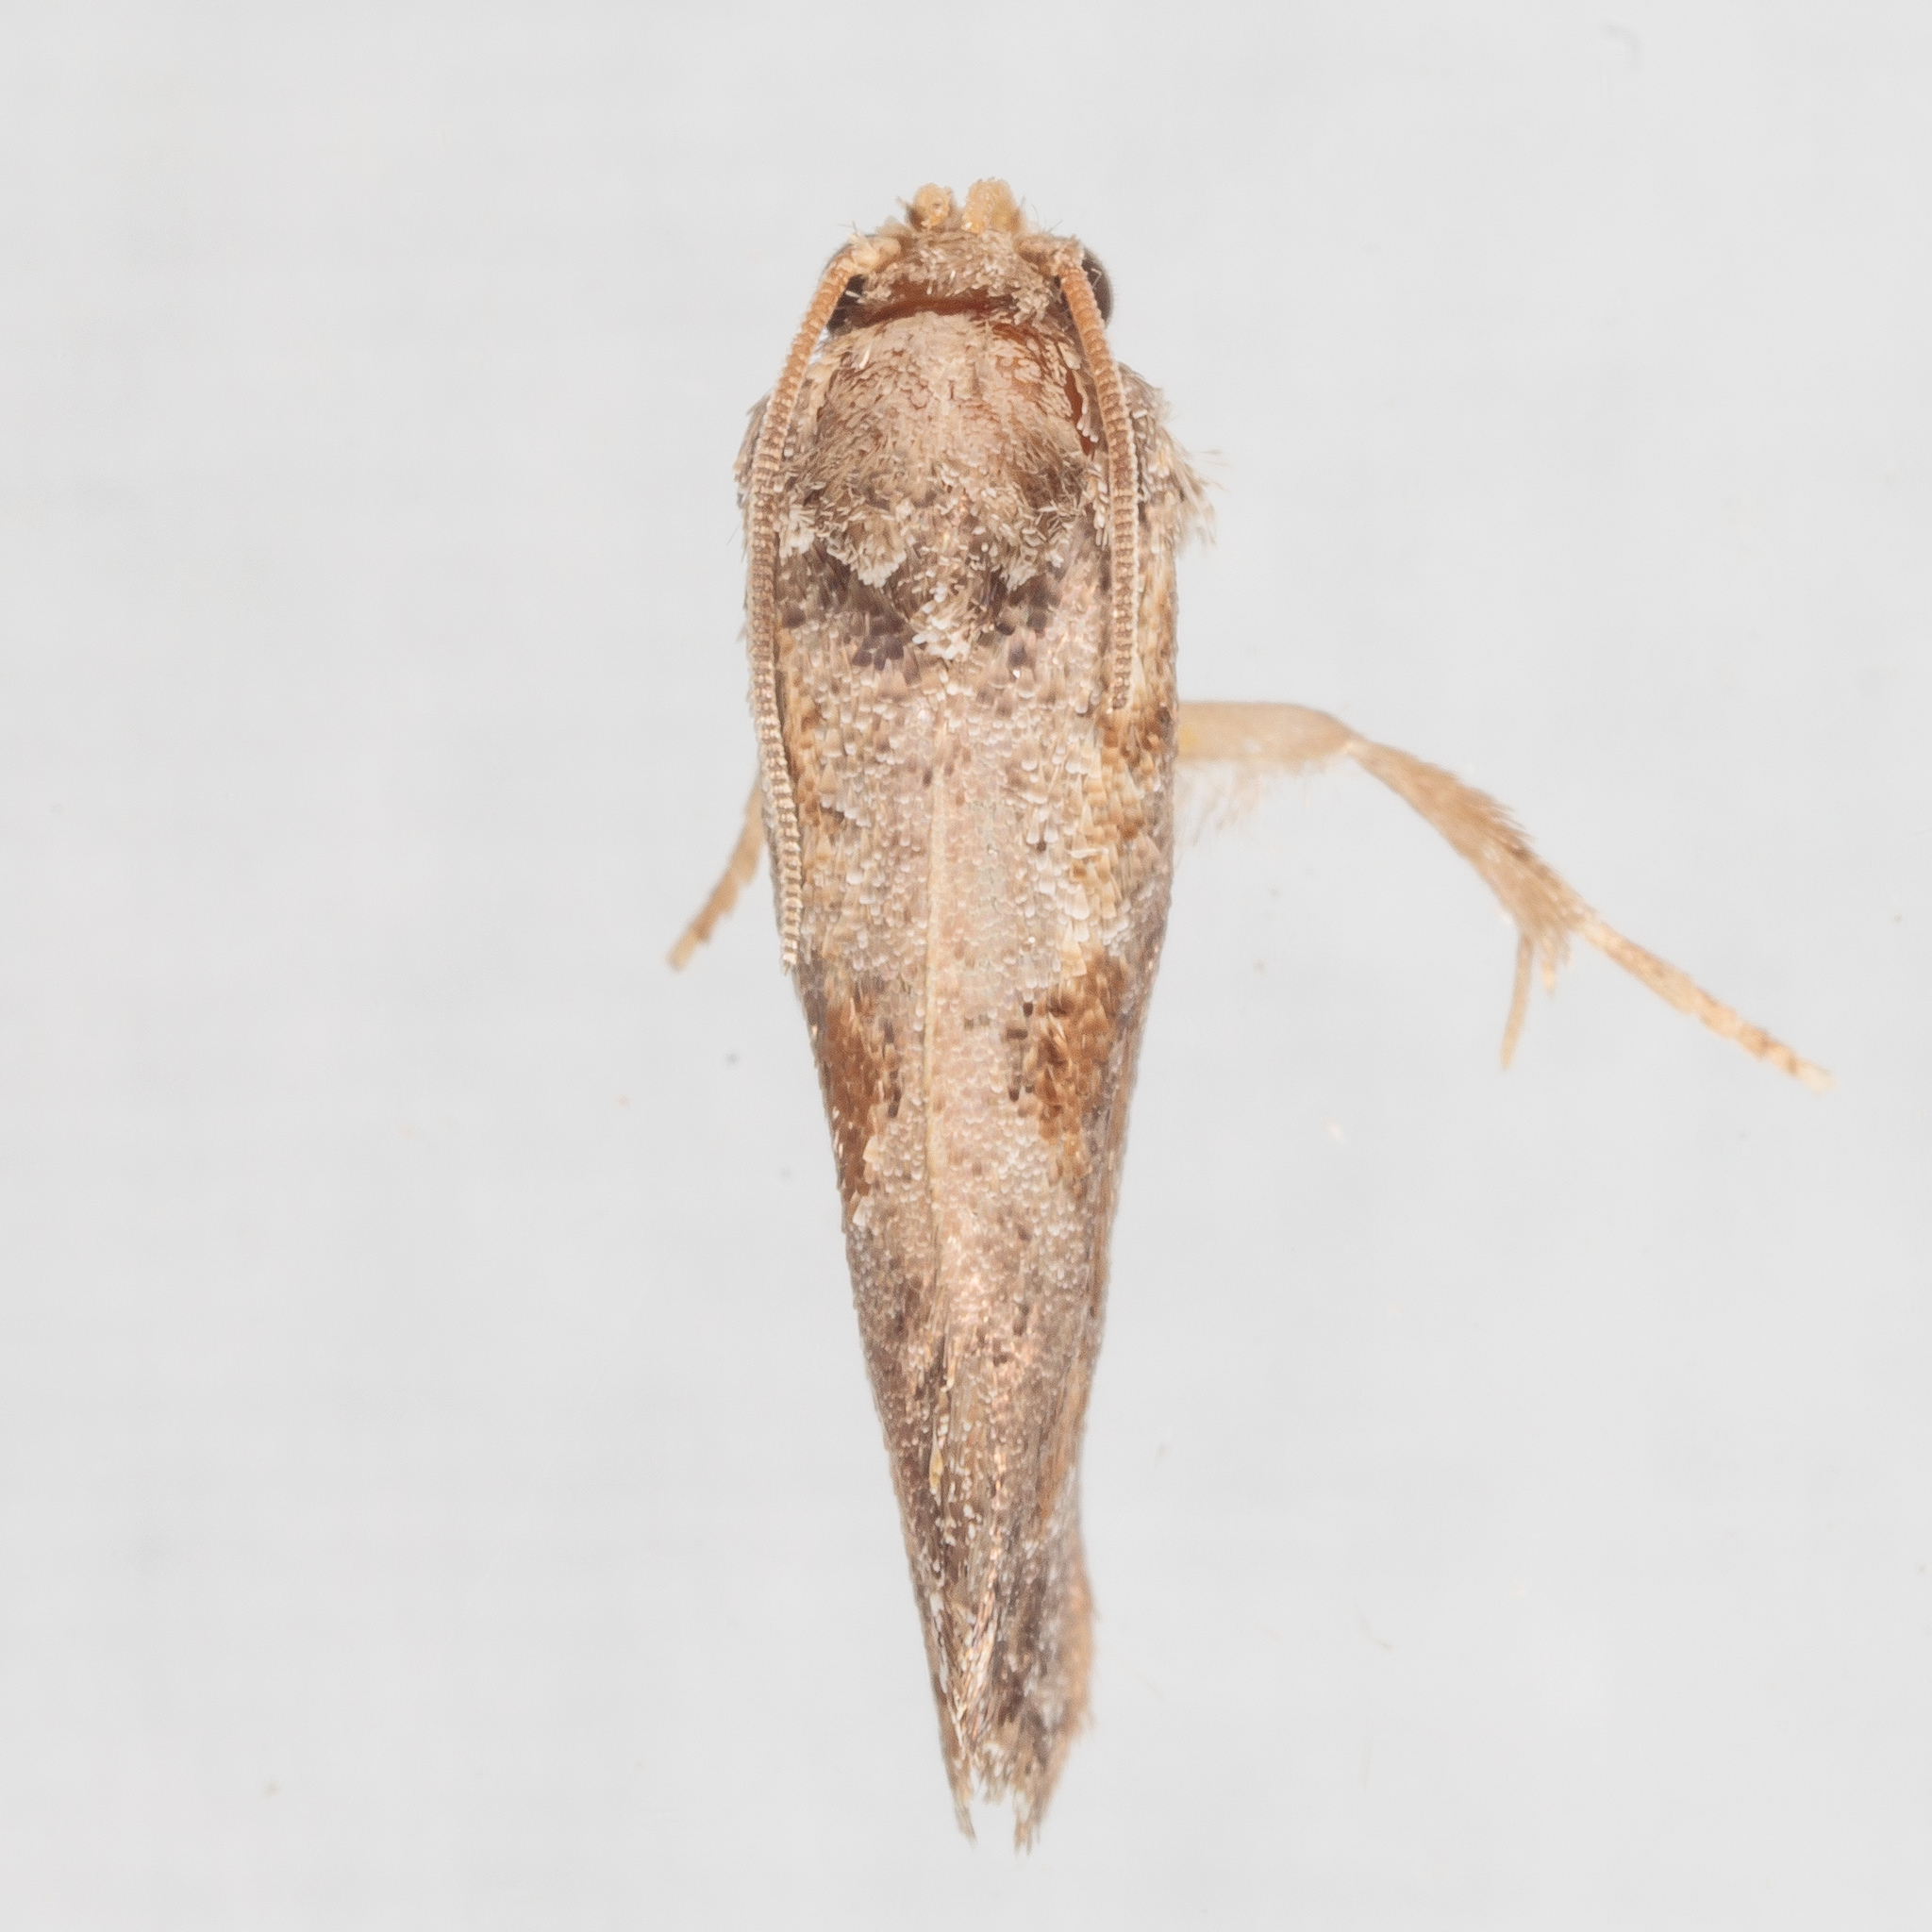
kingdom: Animalia
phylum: Arthropoda
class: Insecta
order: Lepidoptera
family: Tineidae
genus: Acrolophus
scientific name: Acrolophus piger
